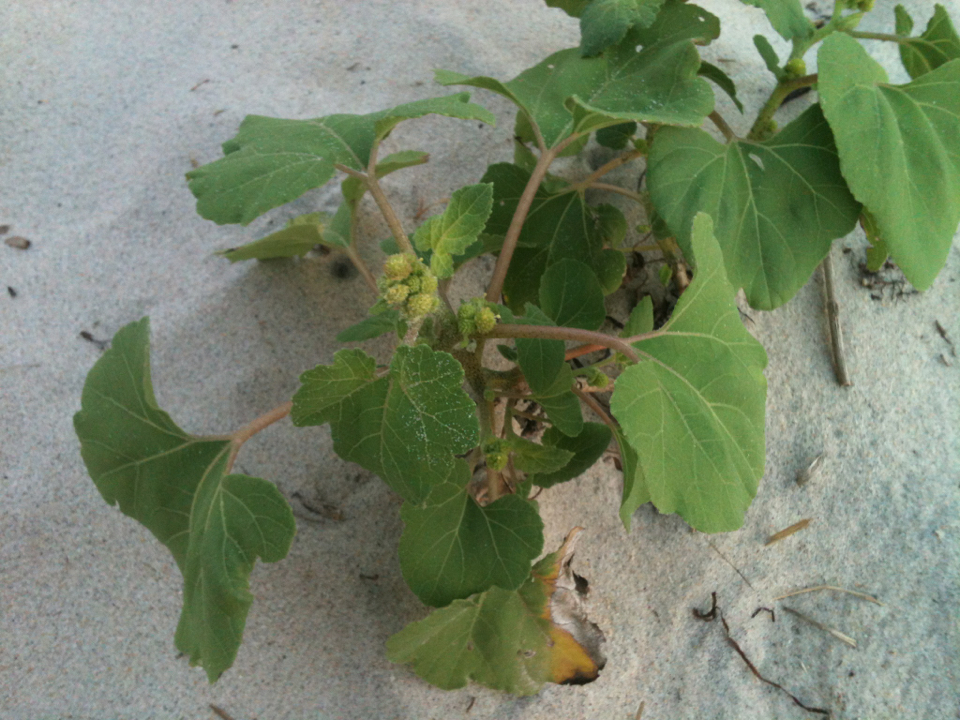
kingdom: Plantae
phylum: Tracheophyta
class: Magnoliopsida
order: Asterales
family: Asteraceae
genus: Xanthium
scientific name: Xanthium strumarium
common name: Rough cocklebur
